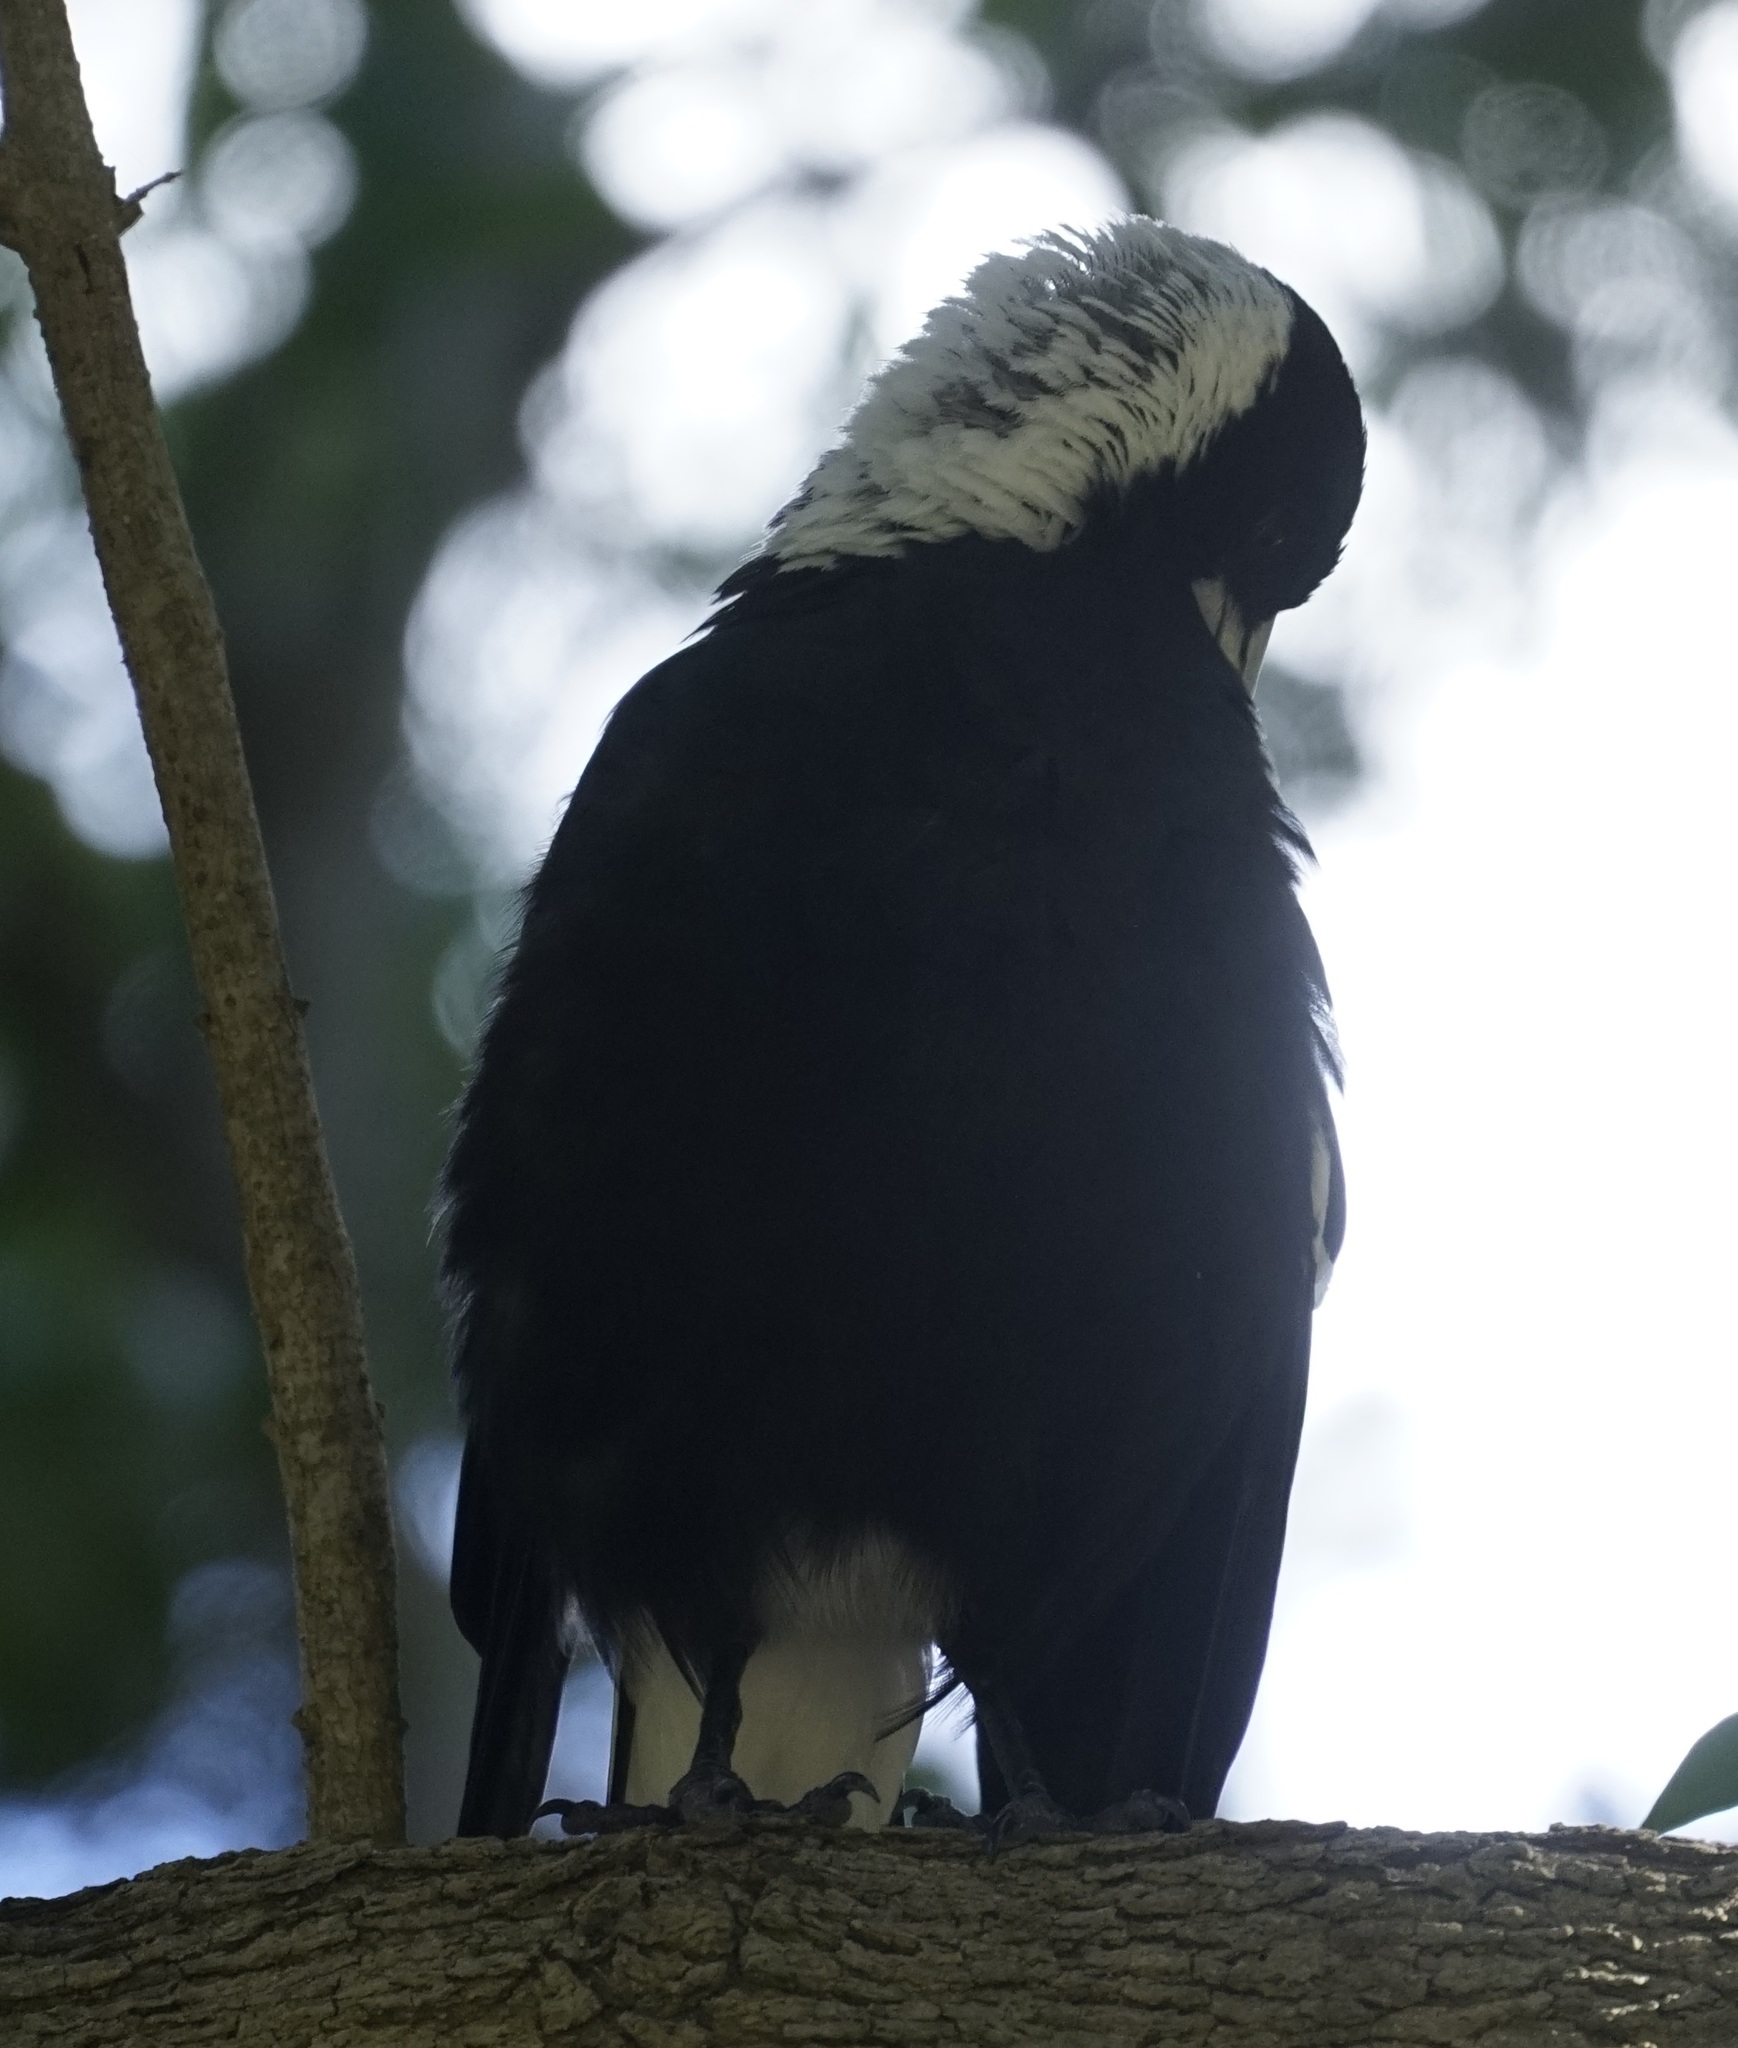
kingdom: Animalia
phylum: Chordata
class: Aves
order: Passeriformes
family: Cracticidae
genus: Gymnorhina
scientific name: Gymnorhina tibicen
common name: Australian magpie
